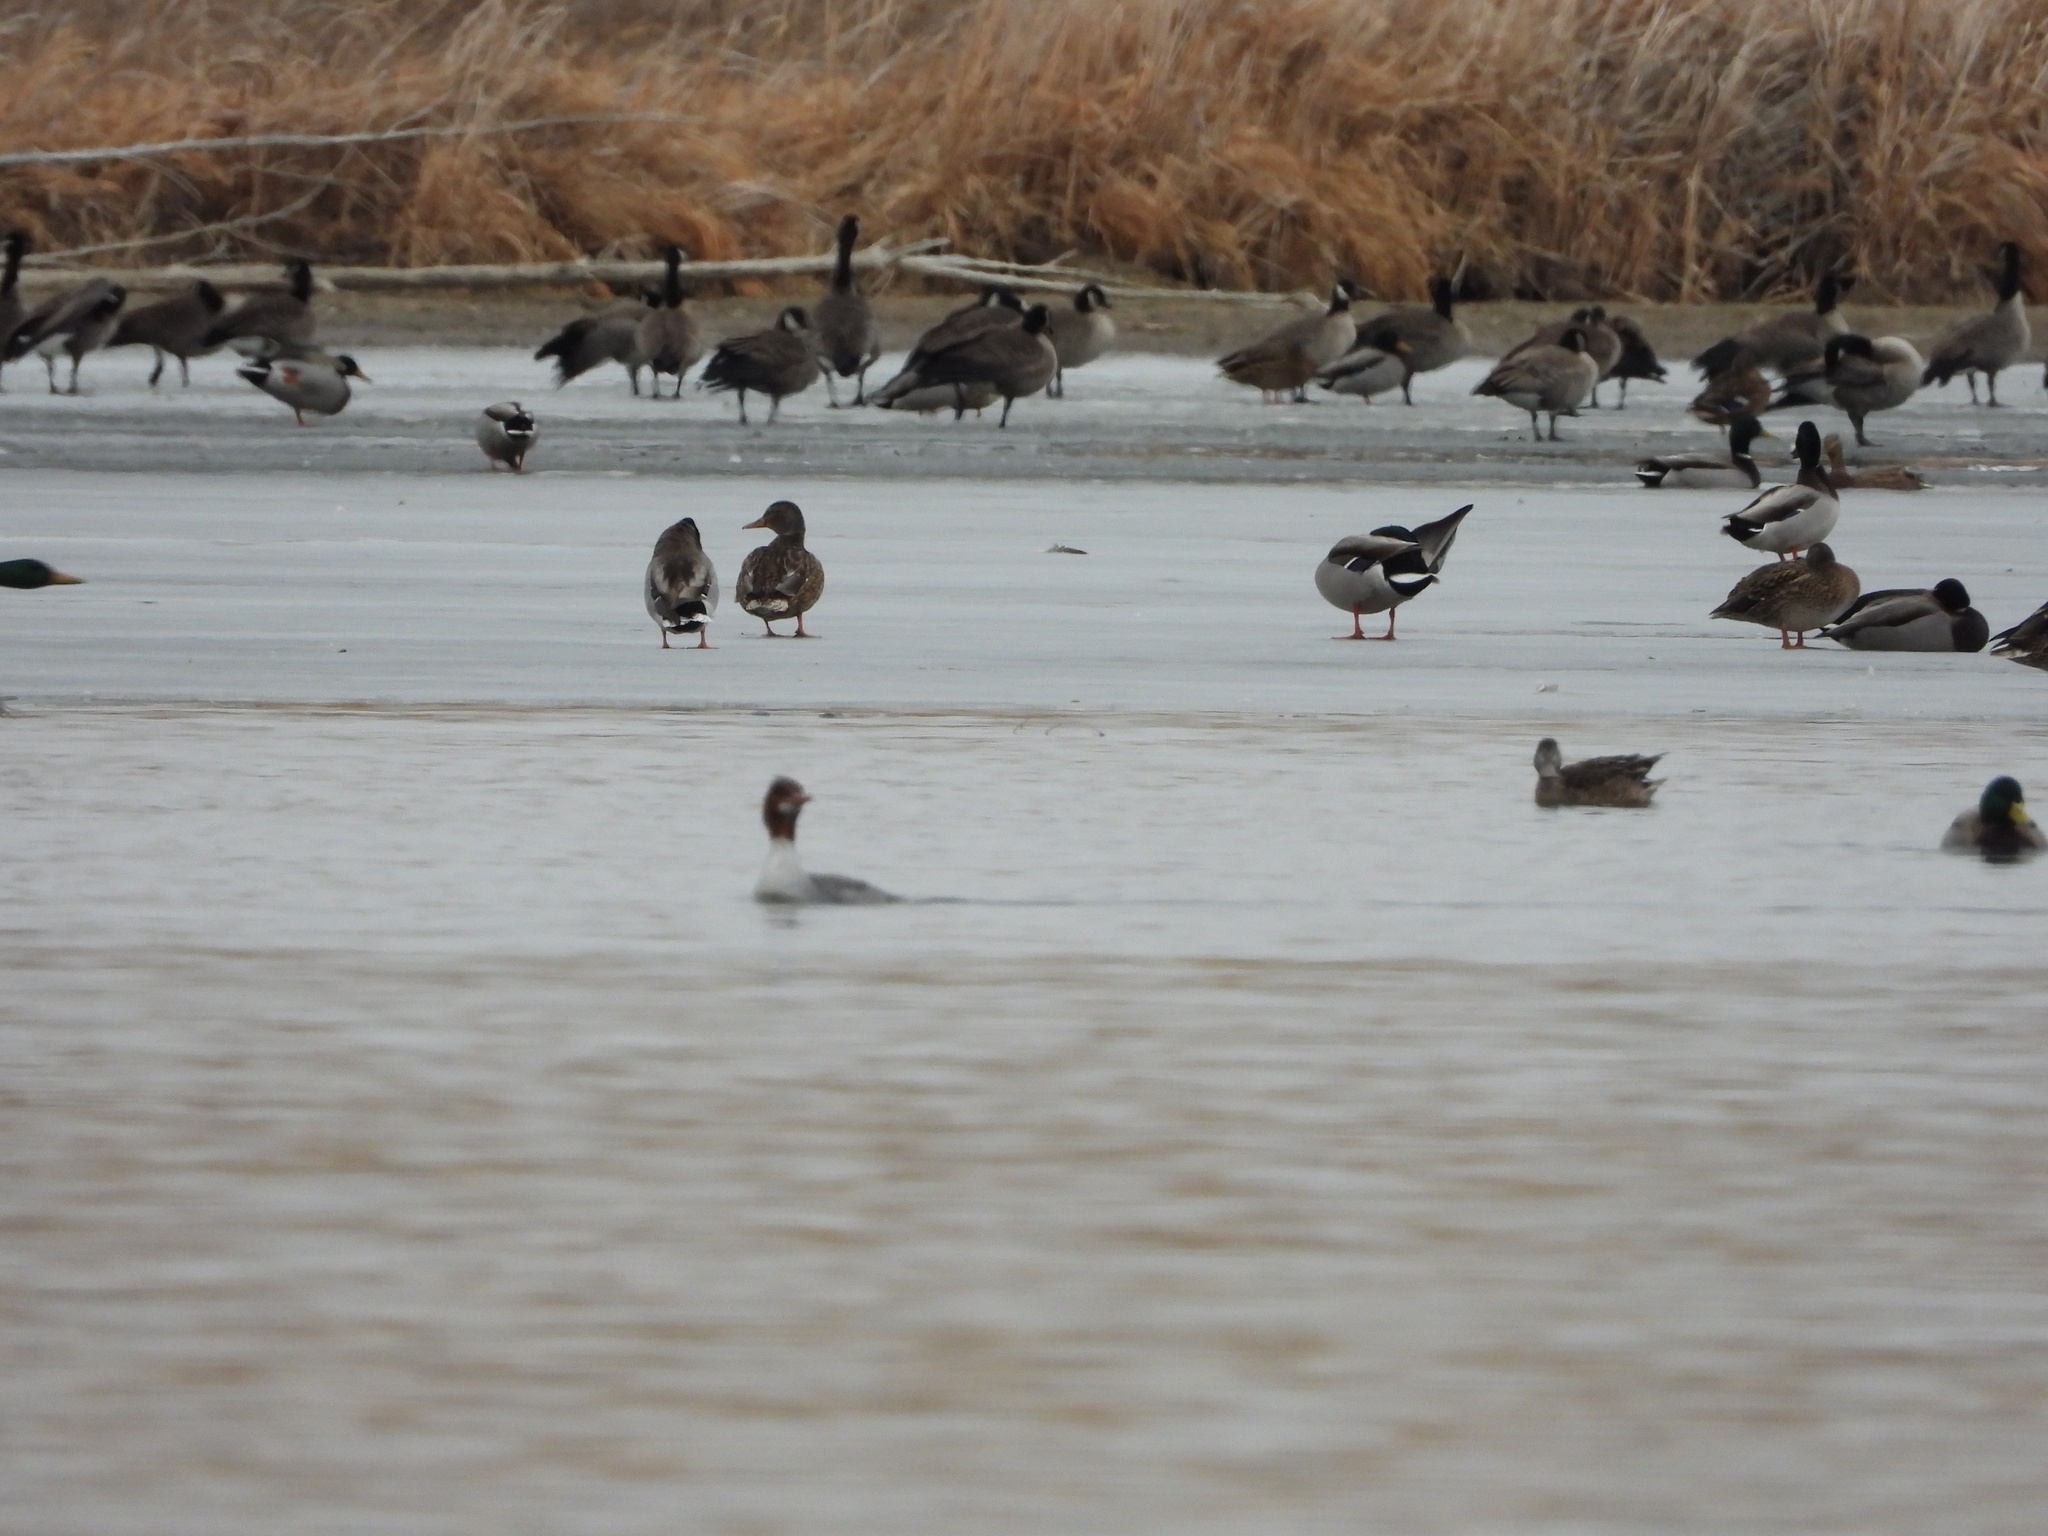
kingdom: Animalia
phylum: Chordata
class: Aves
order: Anseriformes
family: Anatidae
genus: Mergus
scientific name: Mergus merganser
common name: Common merganser
